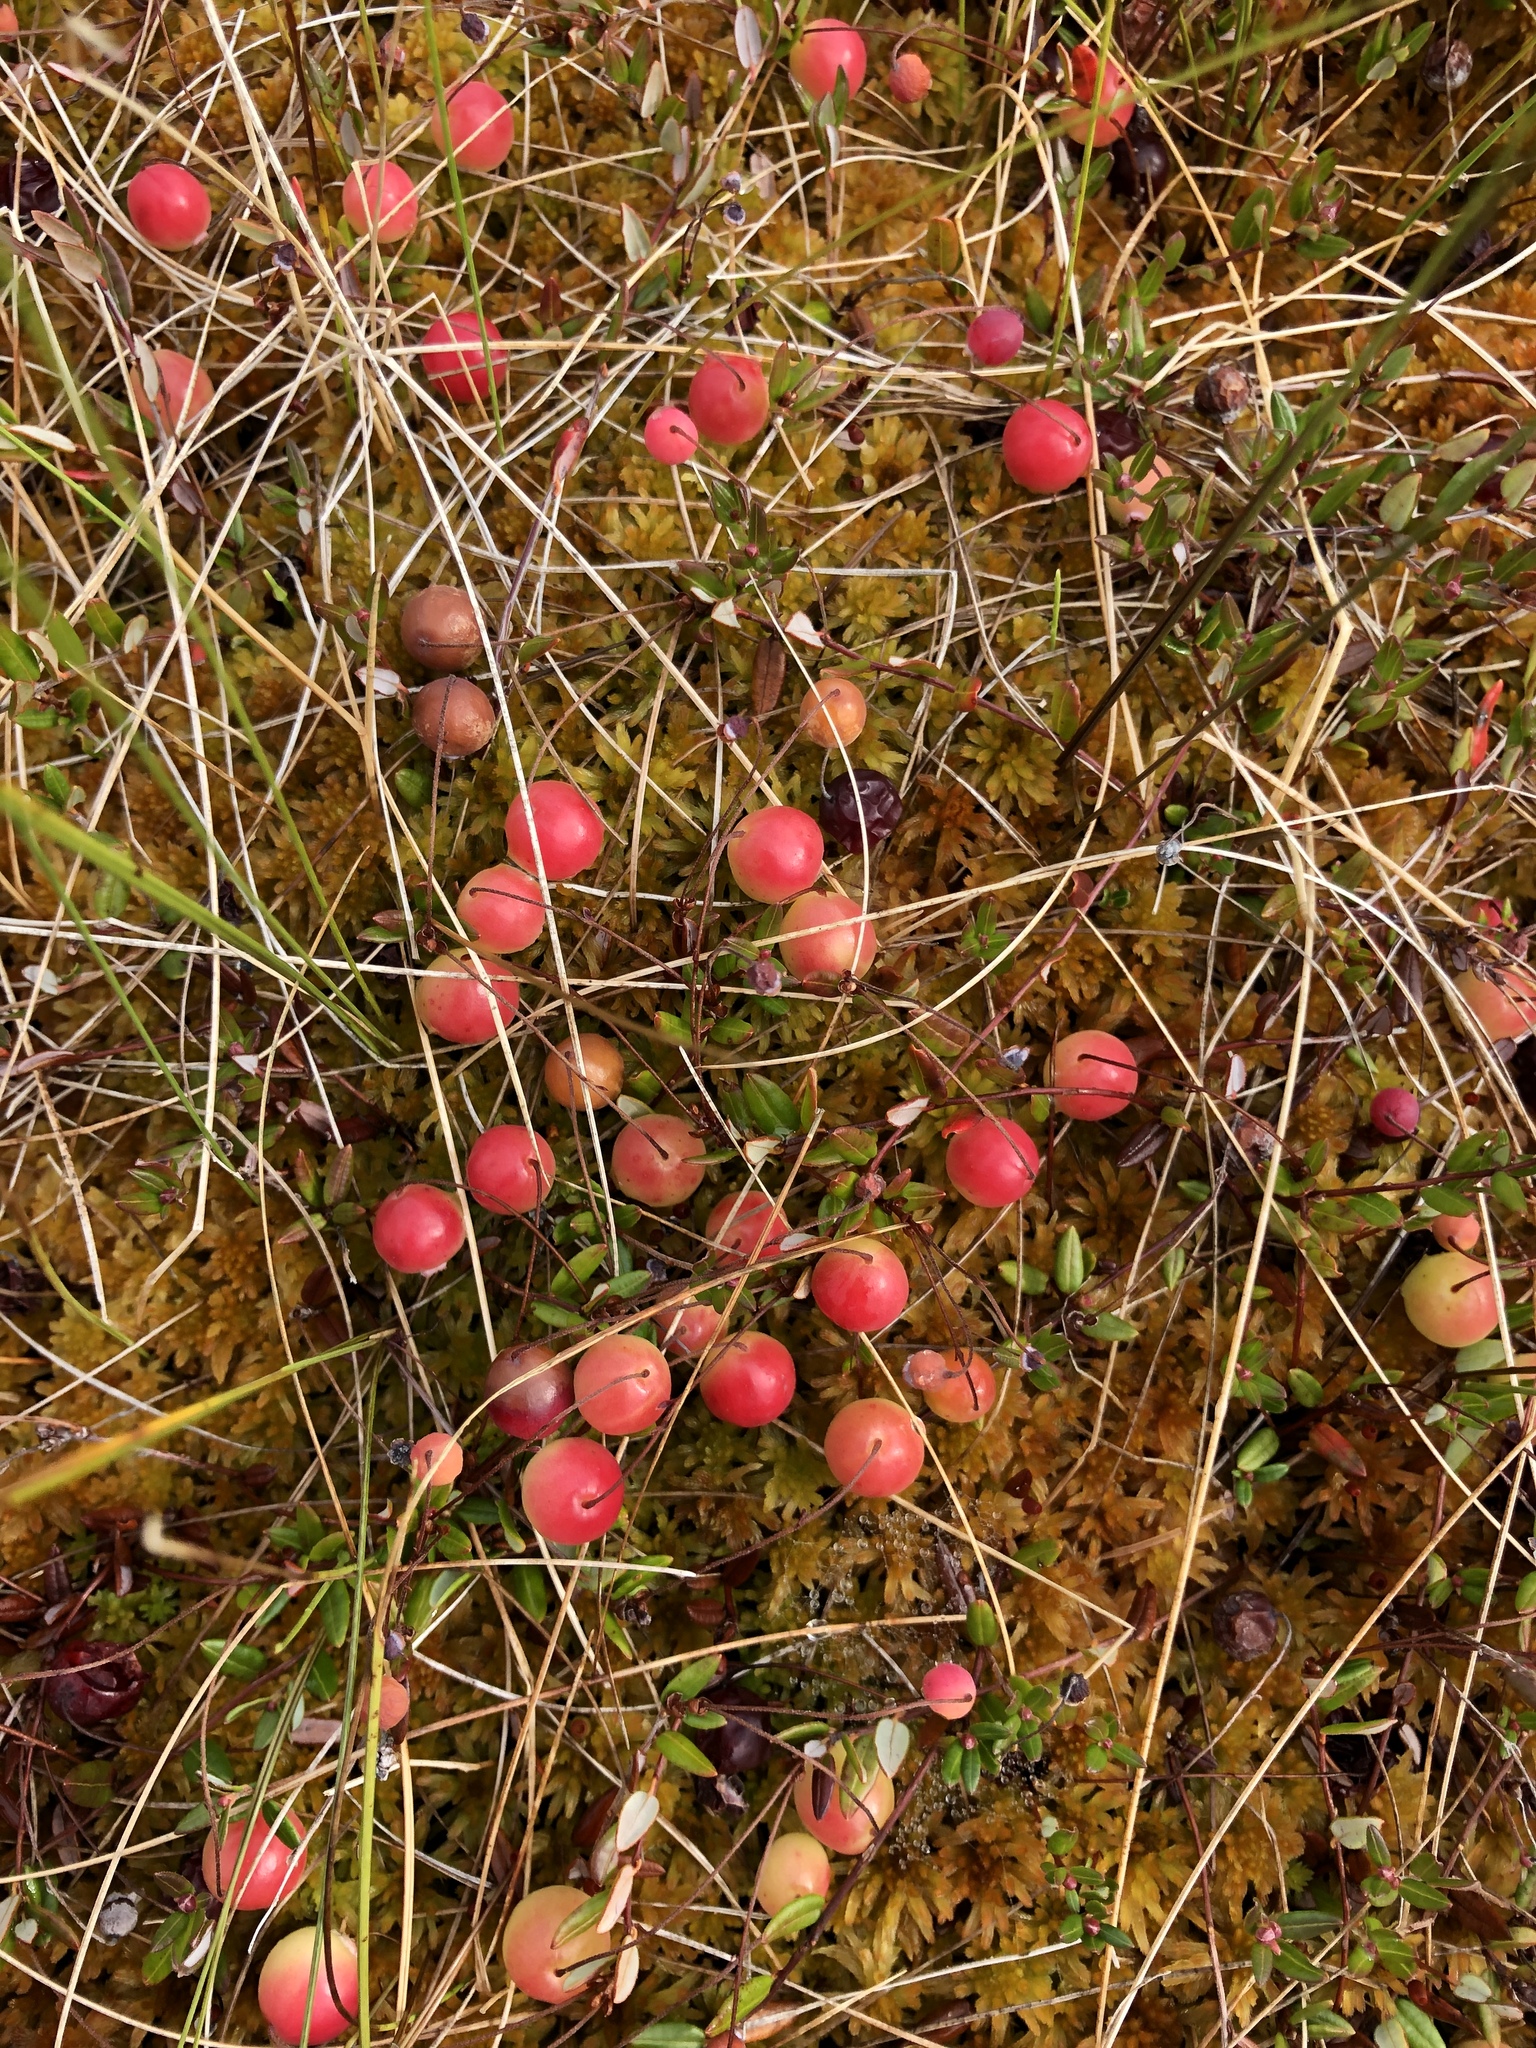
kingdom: Plantae
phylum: Tracheophyta
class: Magnoliopsida
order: Ericales
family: Ericaceae
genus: Vaccinium
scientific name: Vaccinium oxycoccos
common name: Cranberry
